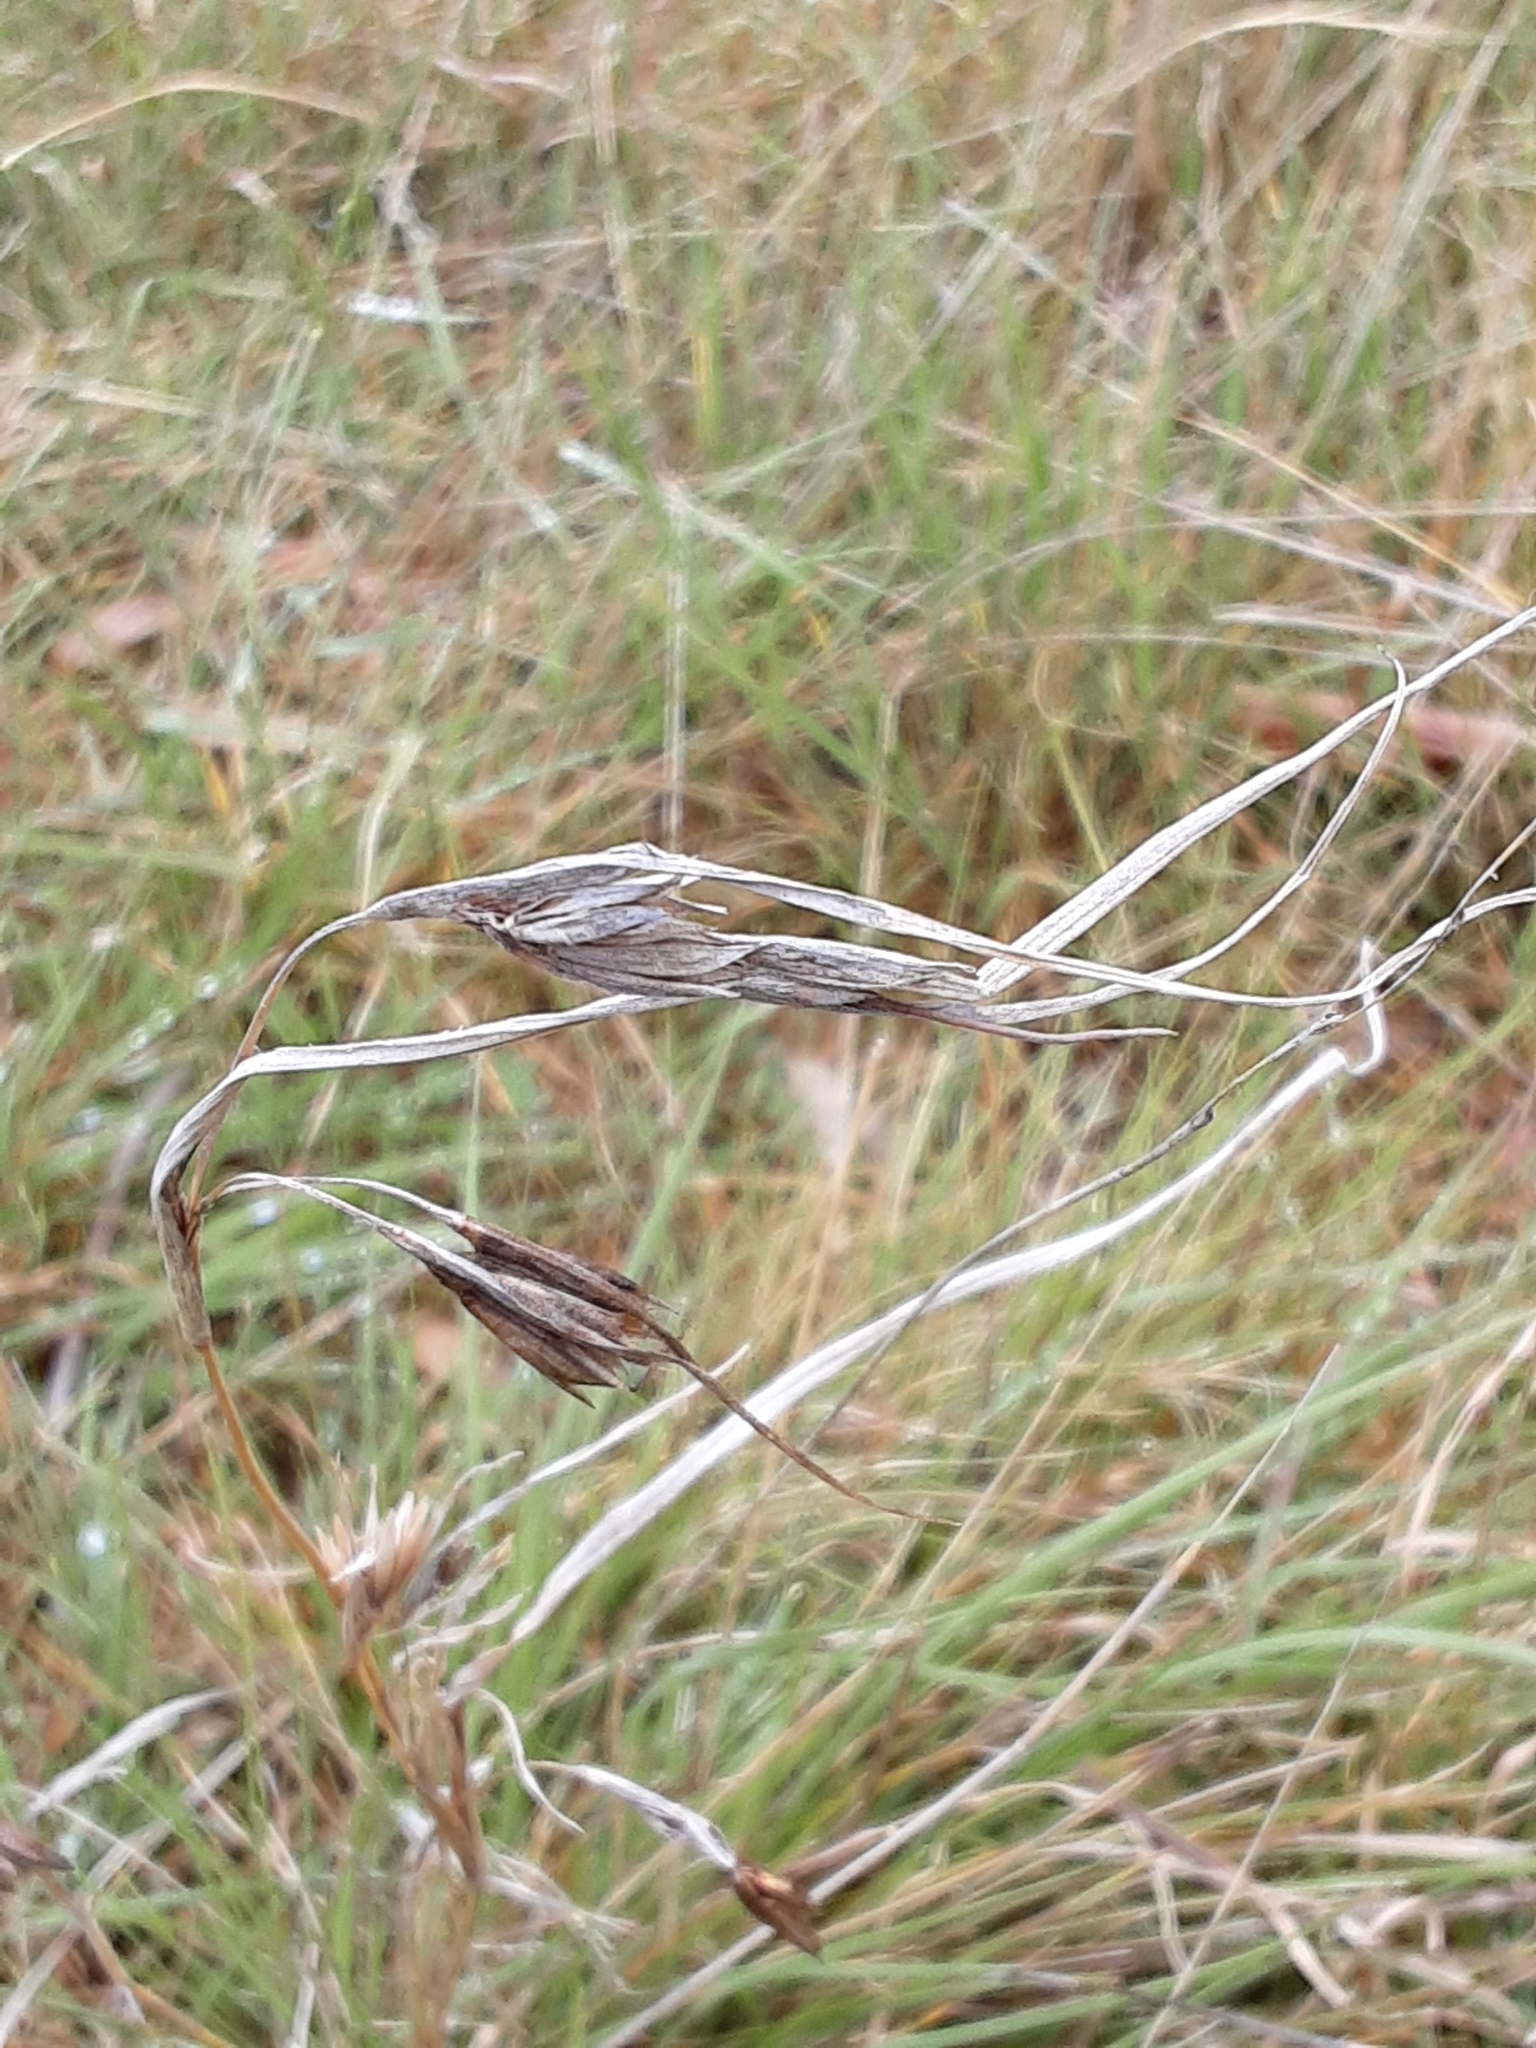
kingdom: Plantae
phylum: Tracheophyta
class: Liliopsida
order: Poales
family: Poaceae
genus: Themeda
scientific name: Themeda triandra
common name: Kangaroo grass
